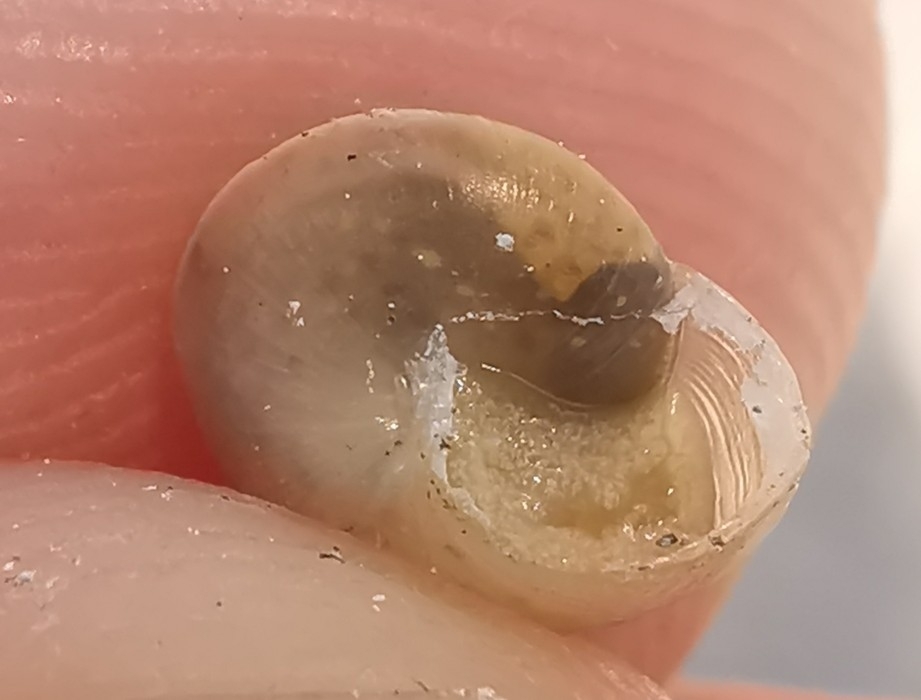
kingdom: Animalia
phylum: Mollusca
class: Gastropoda
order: Stylommatophora
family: Hygromiidae
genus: Hygromia
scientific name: Hygromia cinctella
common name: Girdled snail
